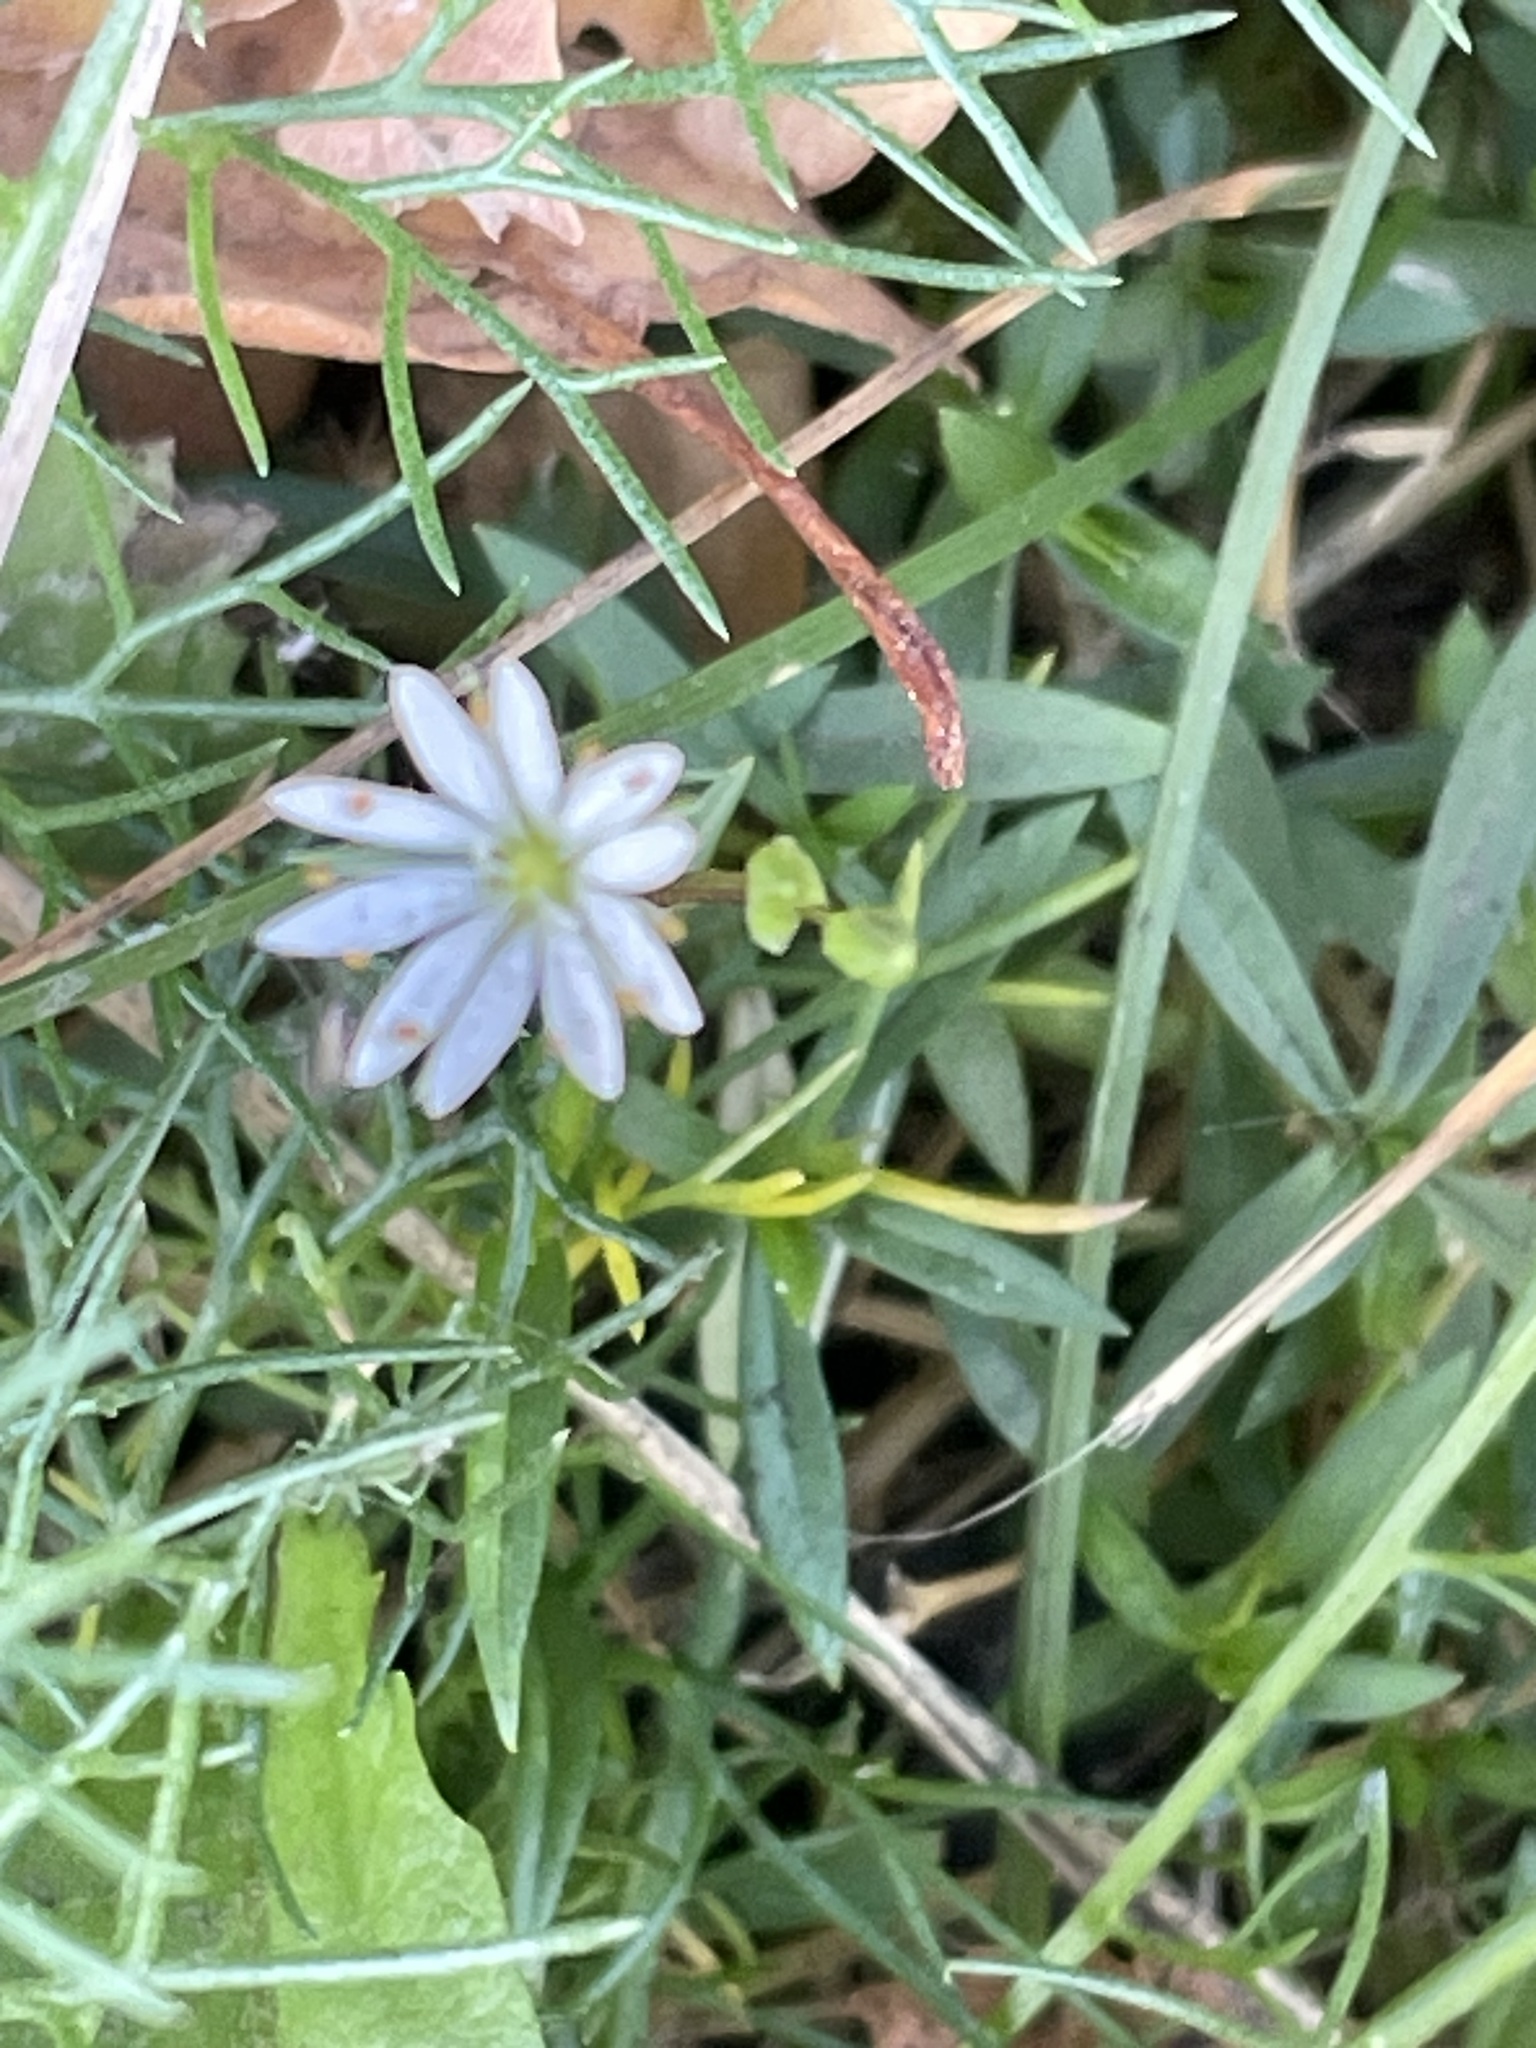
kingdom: Plantae
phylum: Tracheophyta
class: Magnoliopsida
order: Caryophyllales
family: Caryophyllaceae
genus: Stellaria
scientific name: Stellaria graminea
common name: Grass-like starwort
